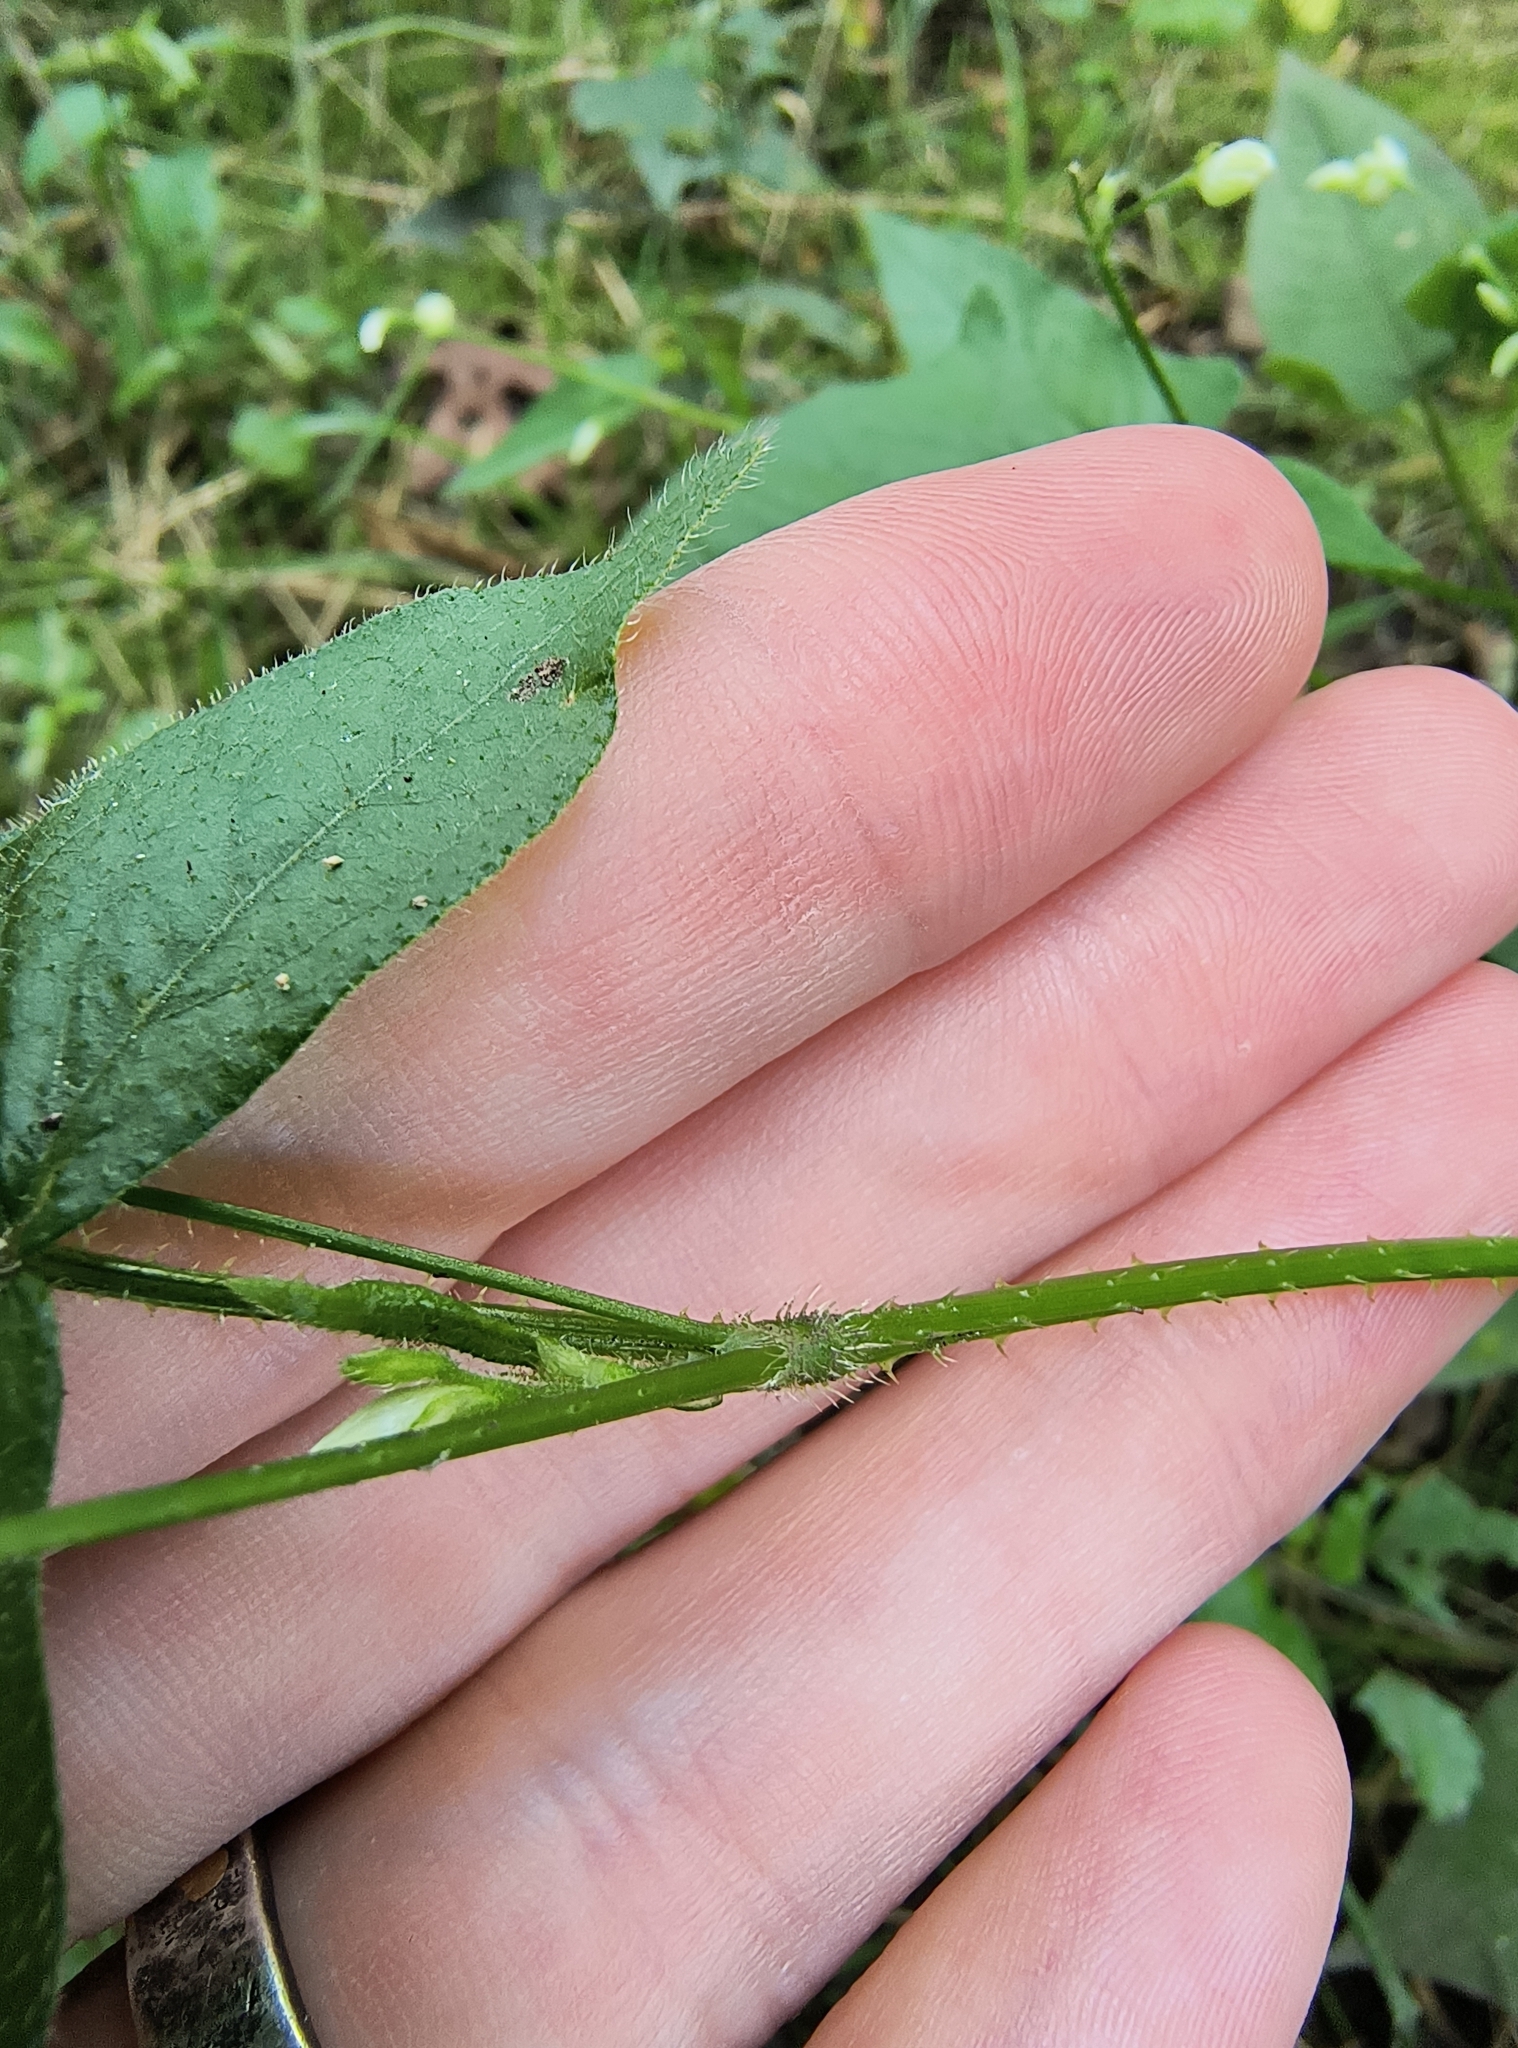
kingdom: Plantae
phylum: Tracheophyta
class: Magnoliopsida
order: Caryophyllales
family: Polygonaceae
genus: Persicaria
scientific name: Persicaria arifolia
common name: Halberd-leaved tear-thumb
